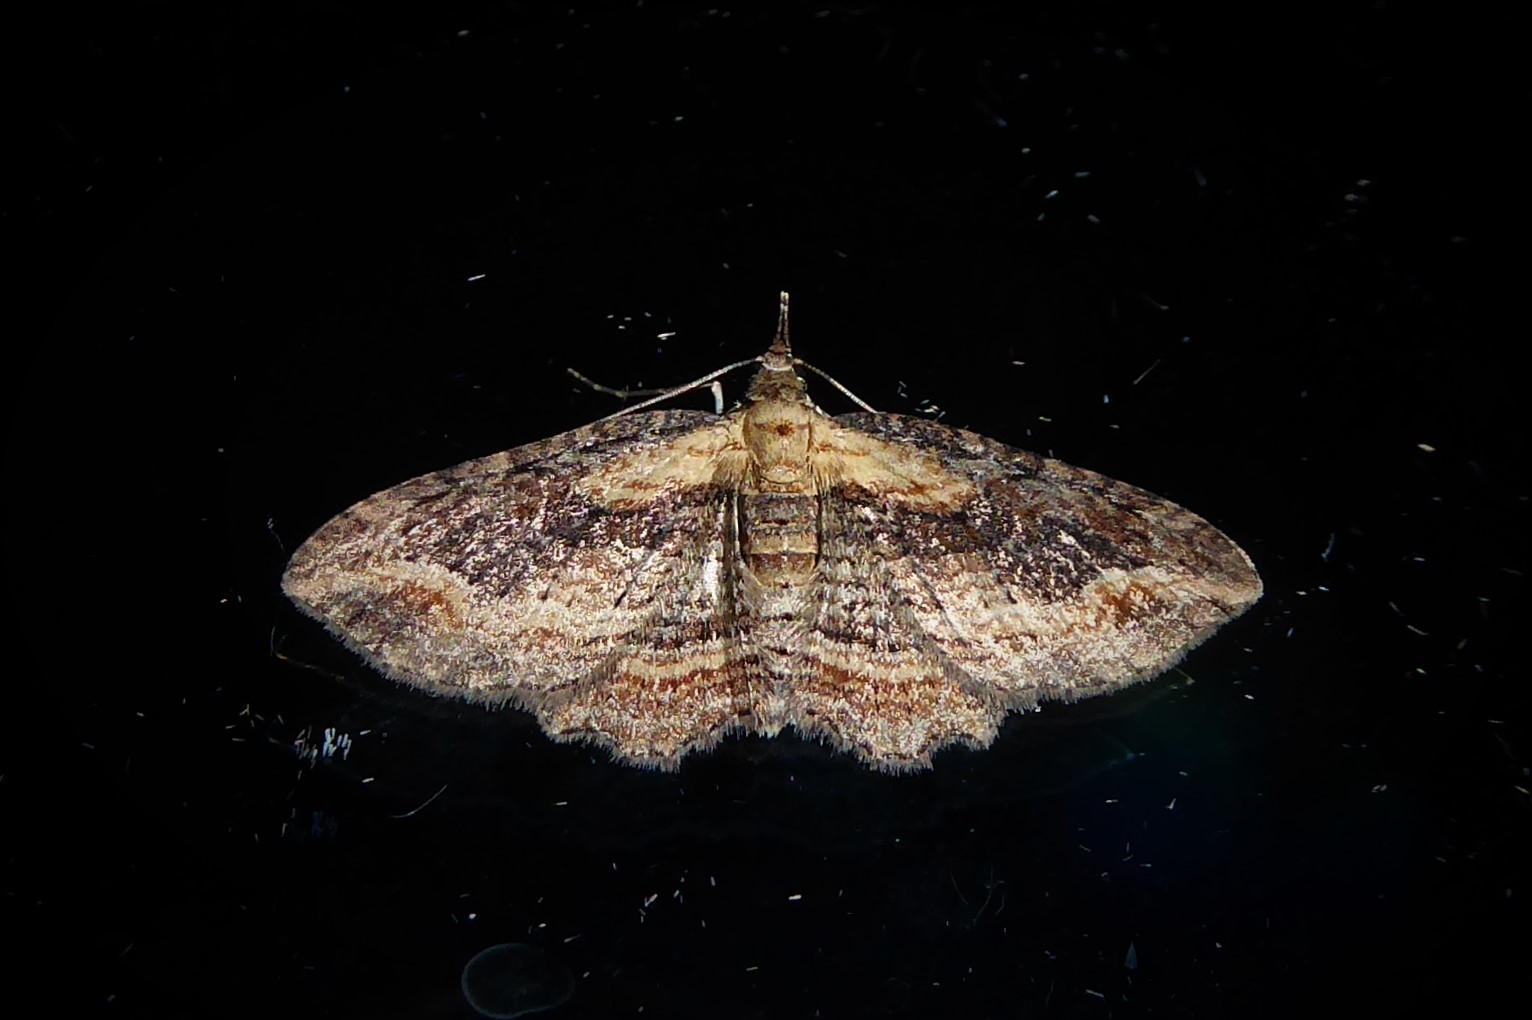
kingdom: Animalia
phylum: Arthropoda
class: Insecta
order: Lepidoptera
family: Geometridae
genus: Chloroclystis
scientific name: Chloroclystis filata
